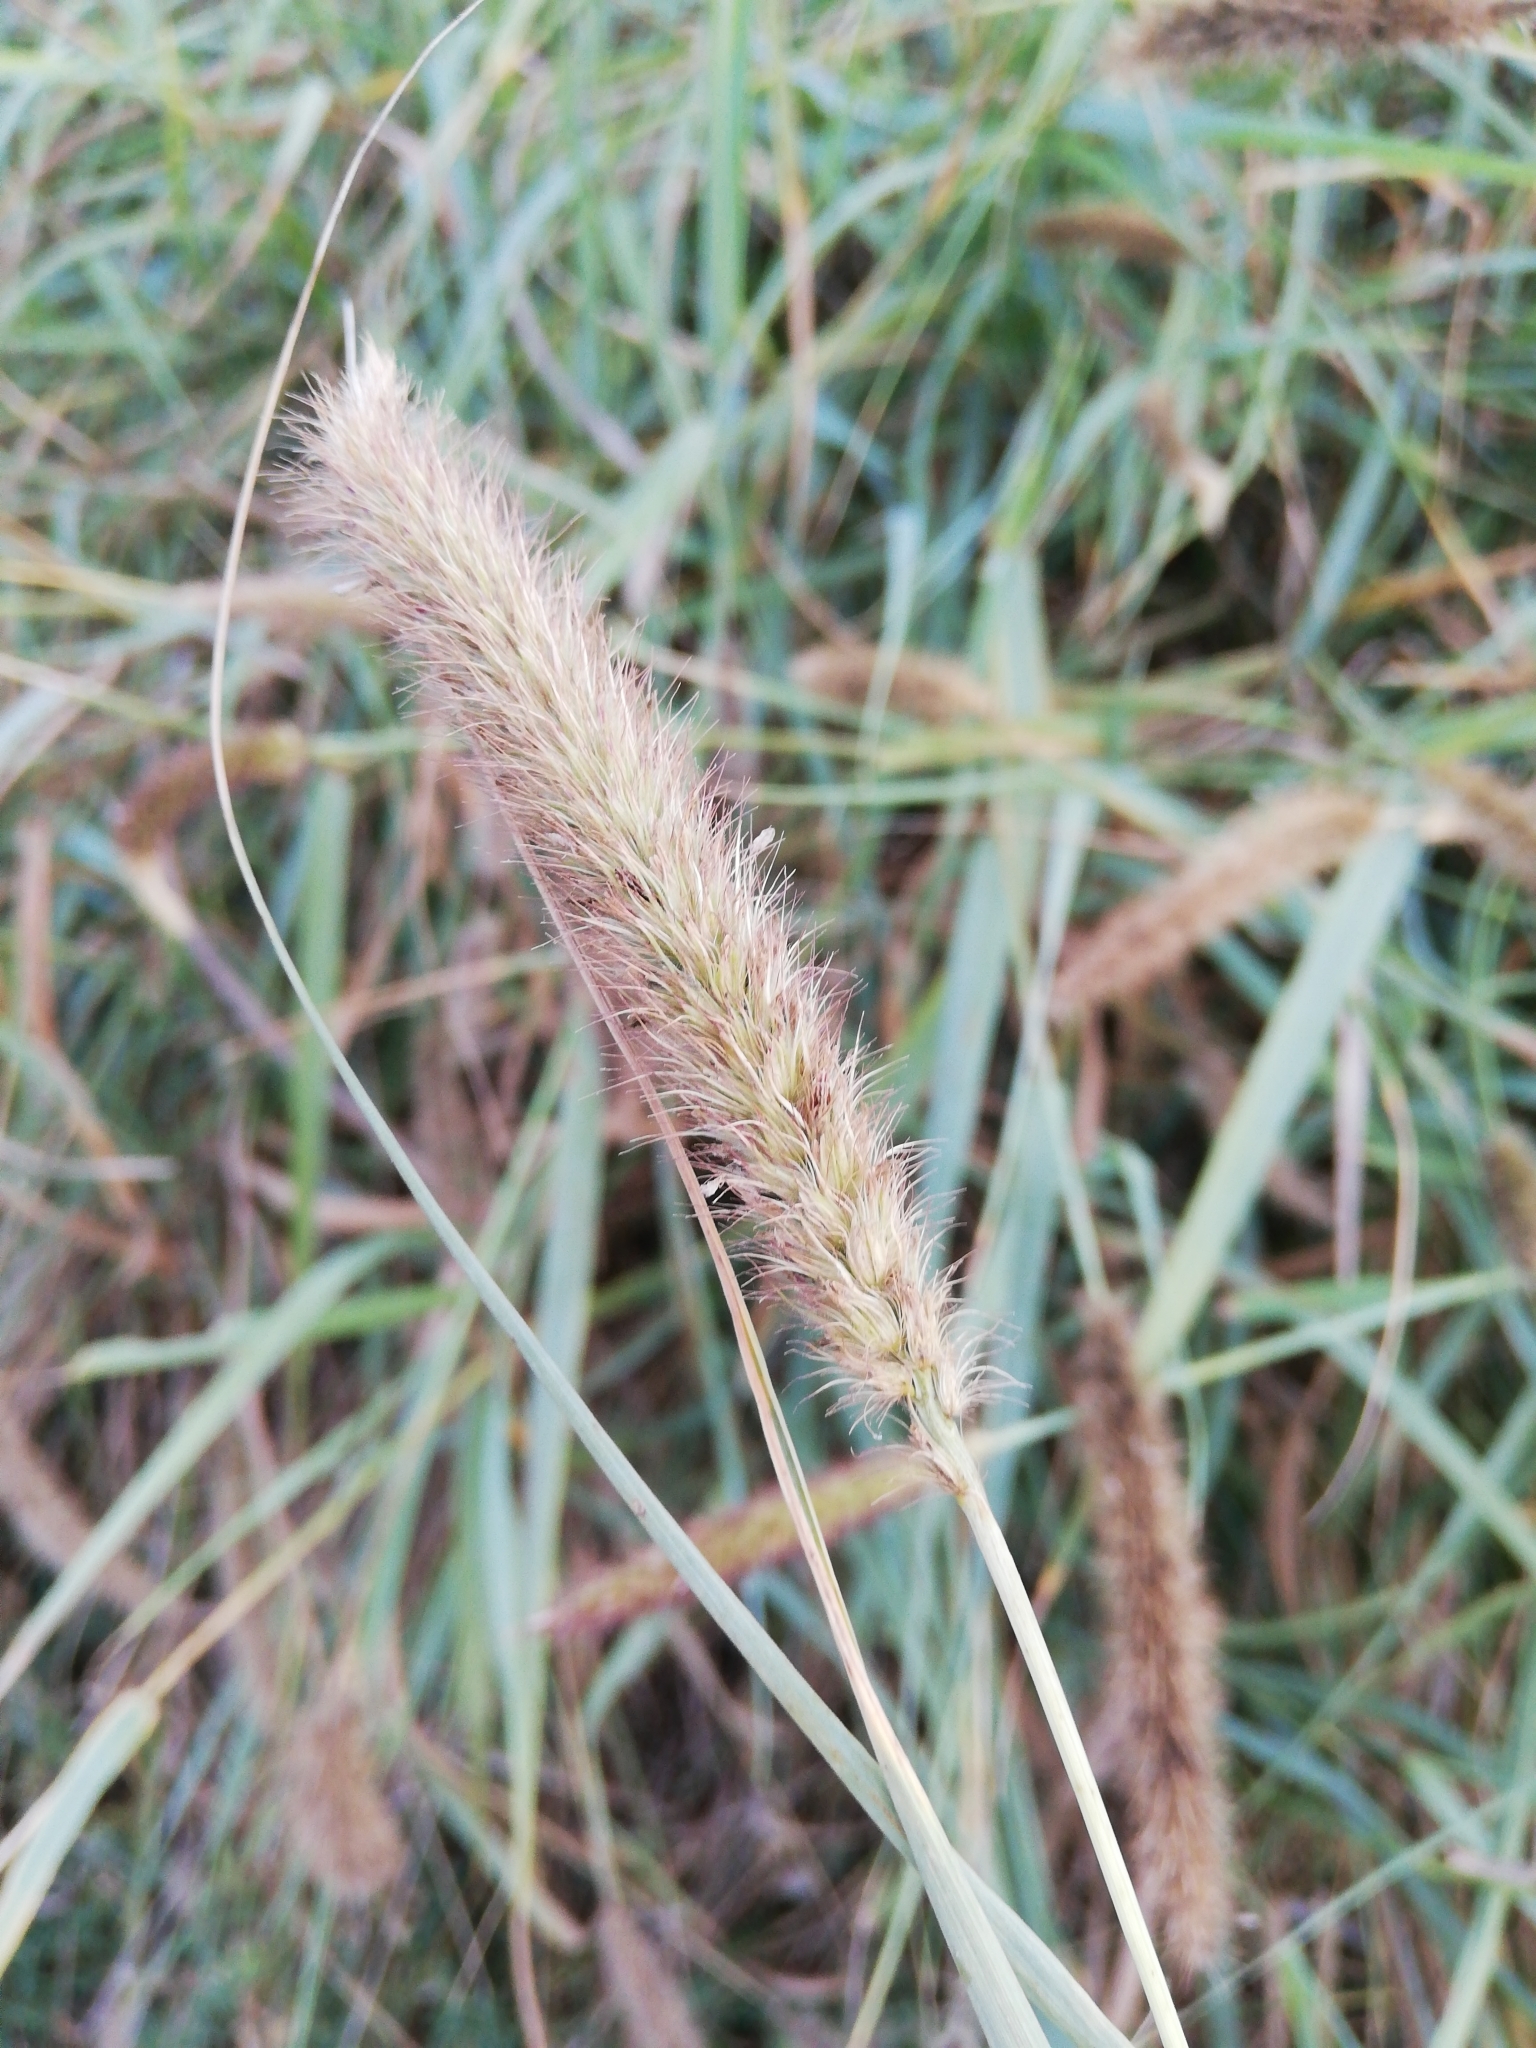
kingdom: Plantae
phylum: Tracheophyta
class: Liliopsida
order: Poales
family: Poaceae
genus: Cenchrus
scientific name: Cenchrus ciliaris
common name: Buffelgrass
